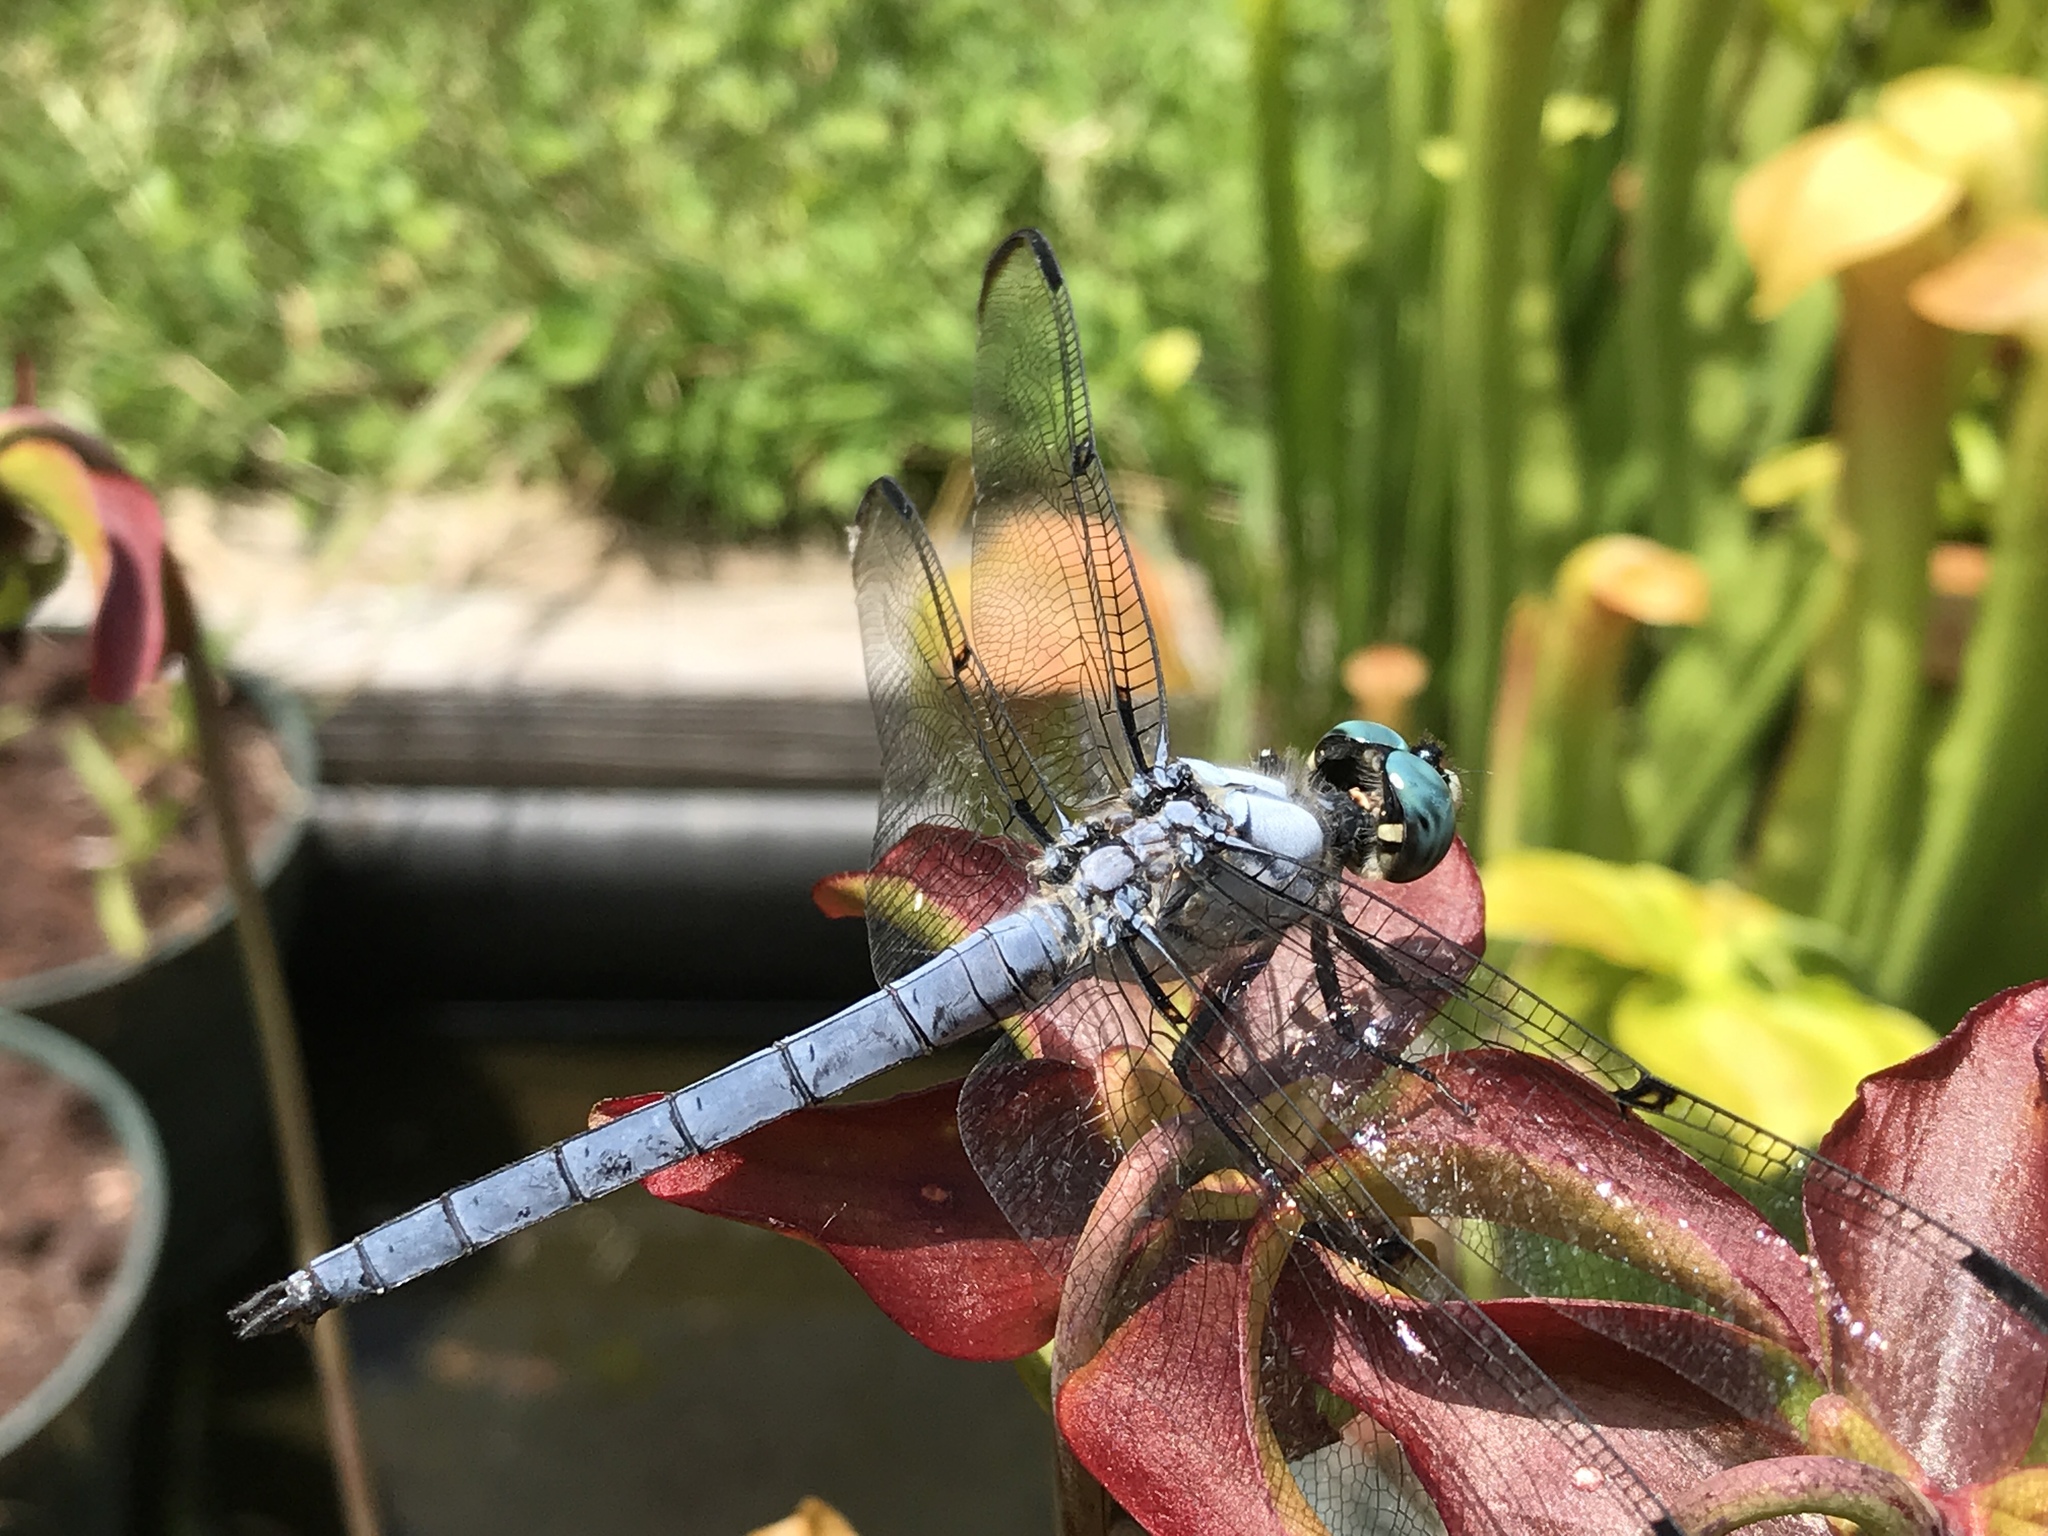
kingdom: Animalia
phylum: Arthropoda
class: Insecta
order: Odonata
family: Libellulidae
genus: Libellula
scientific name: Libellula vibrans
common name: Great blue skimmer
